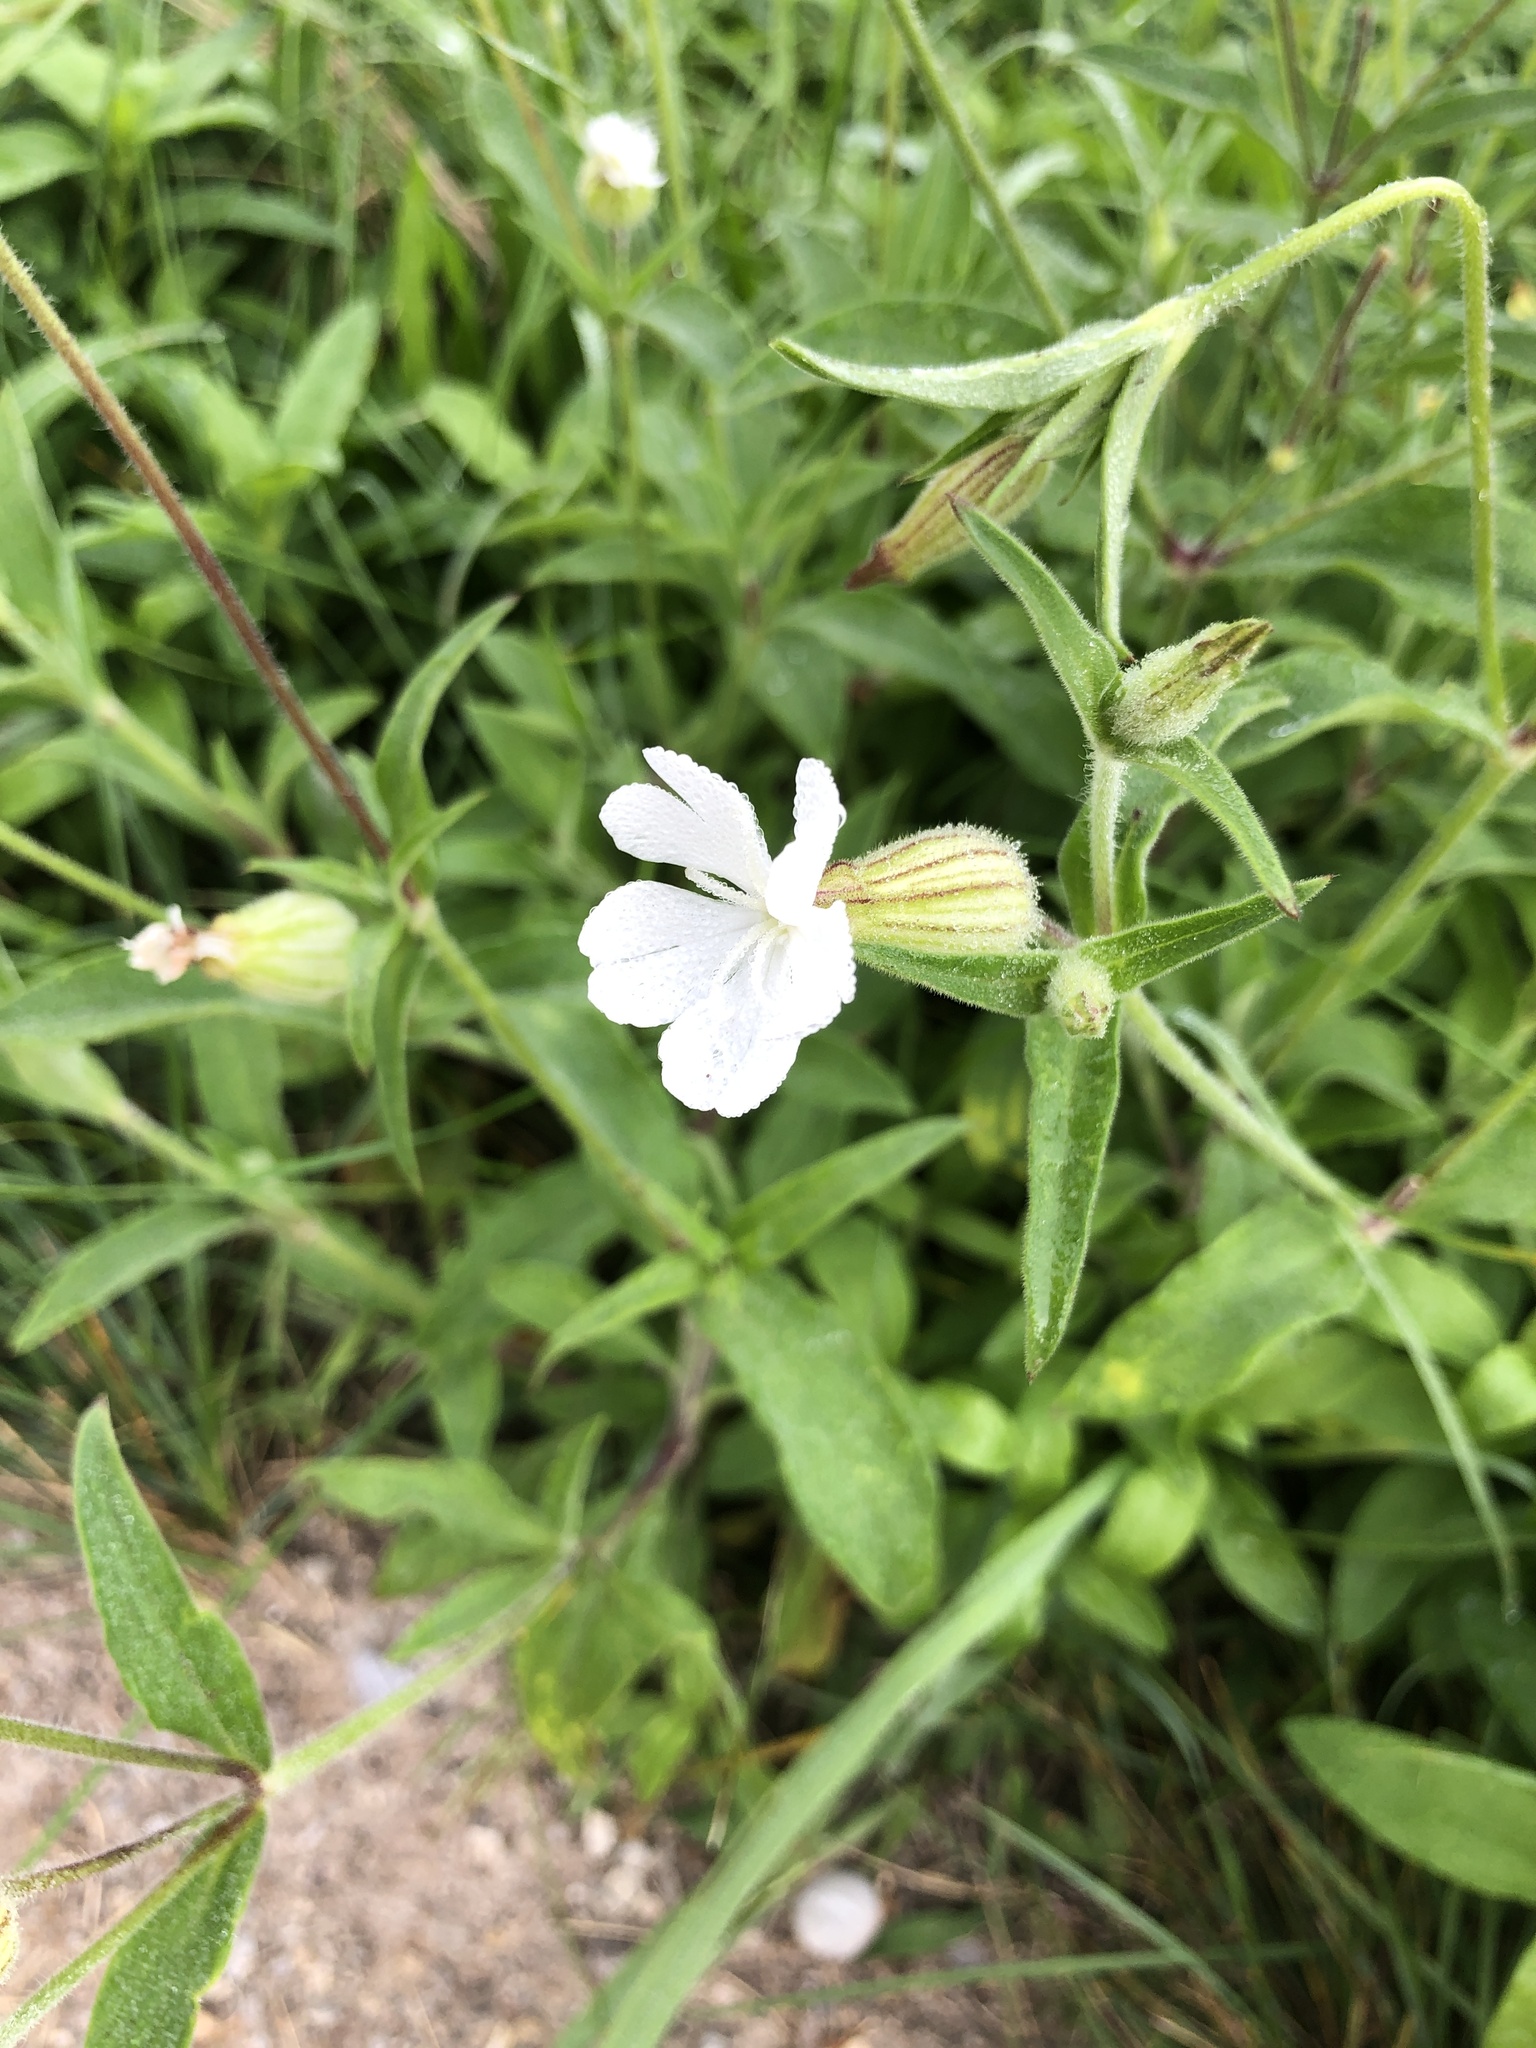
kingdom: Plantae
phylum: Tracheophyta
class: Magnoliopsida
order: Caryophyllales
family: Caryophyllaceae
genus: Silene
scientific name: Silene latifolia
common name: White campion
